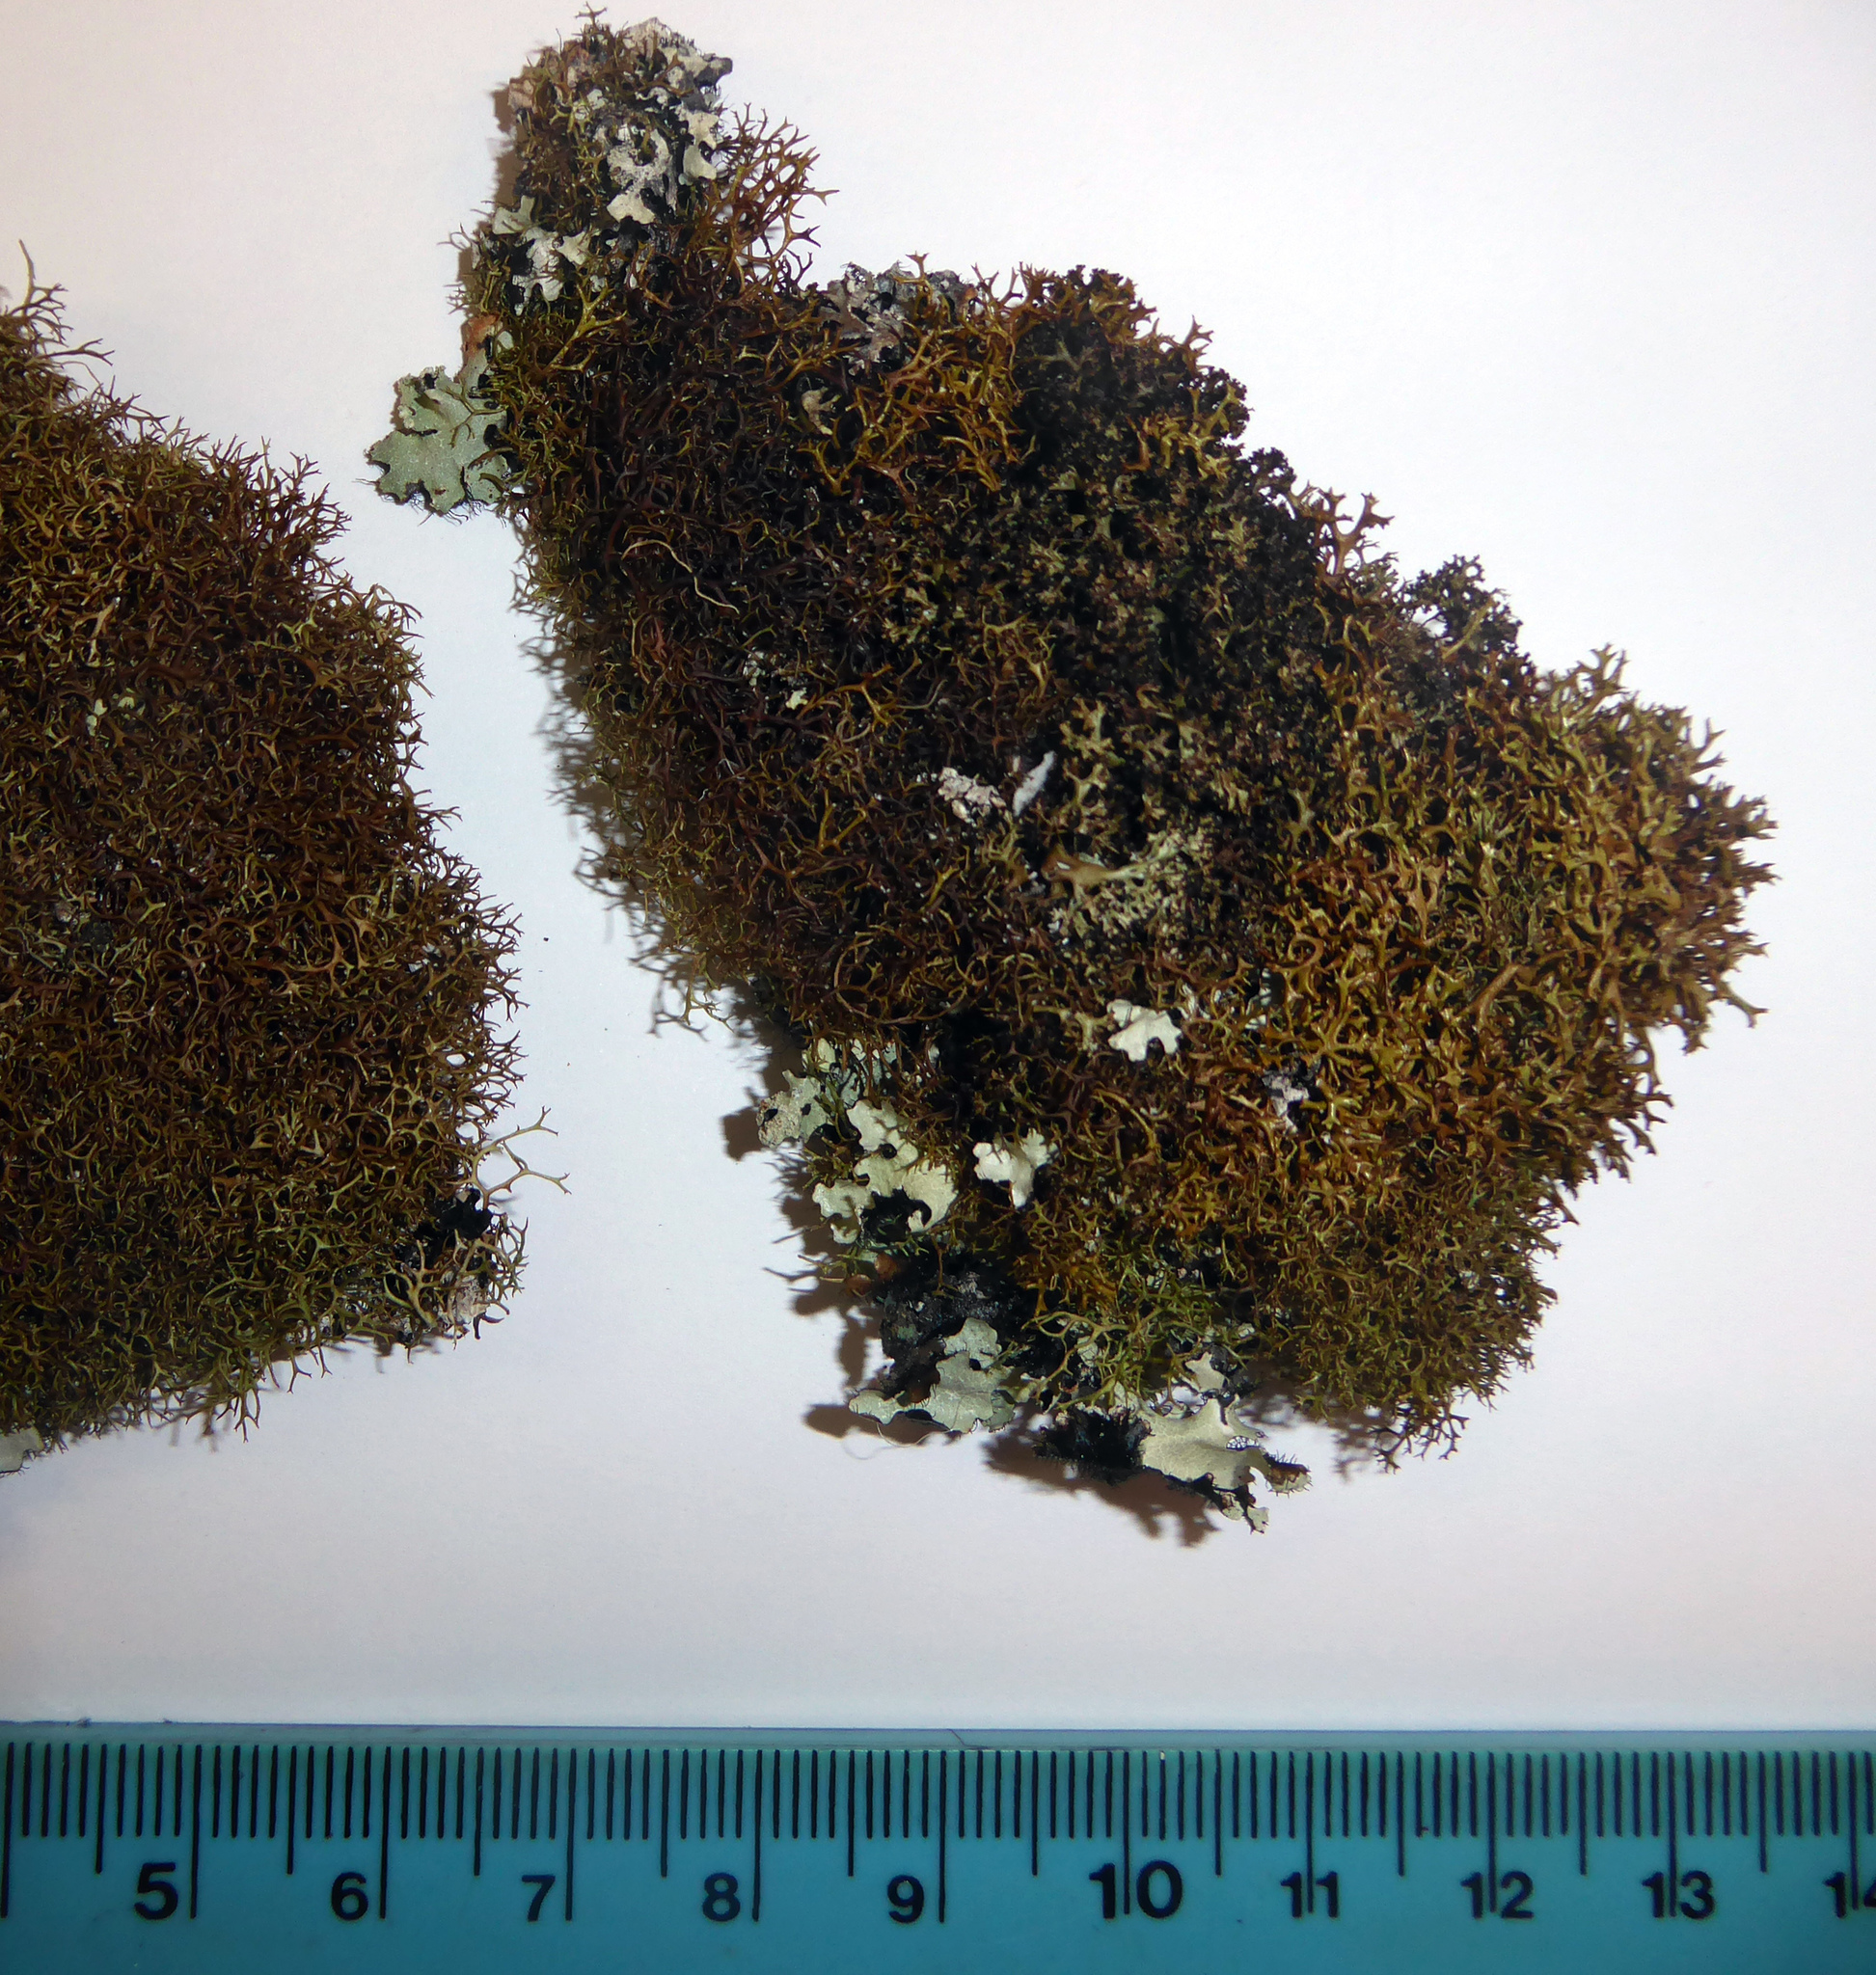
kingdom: Fungi
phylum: Ascomycota
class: Lecanoromycetes
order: Lecanorales
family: Cladoniaceae
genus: Cladia
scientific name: Cladia gorgonea
